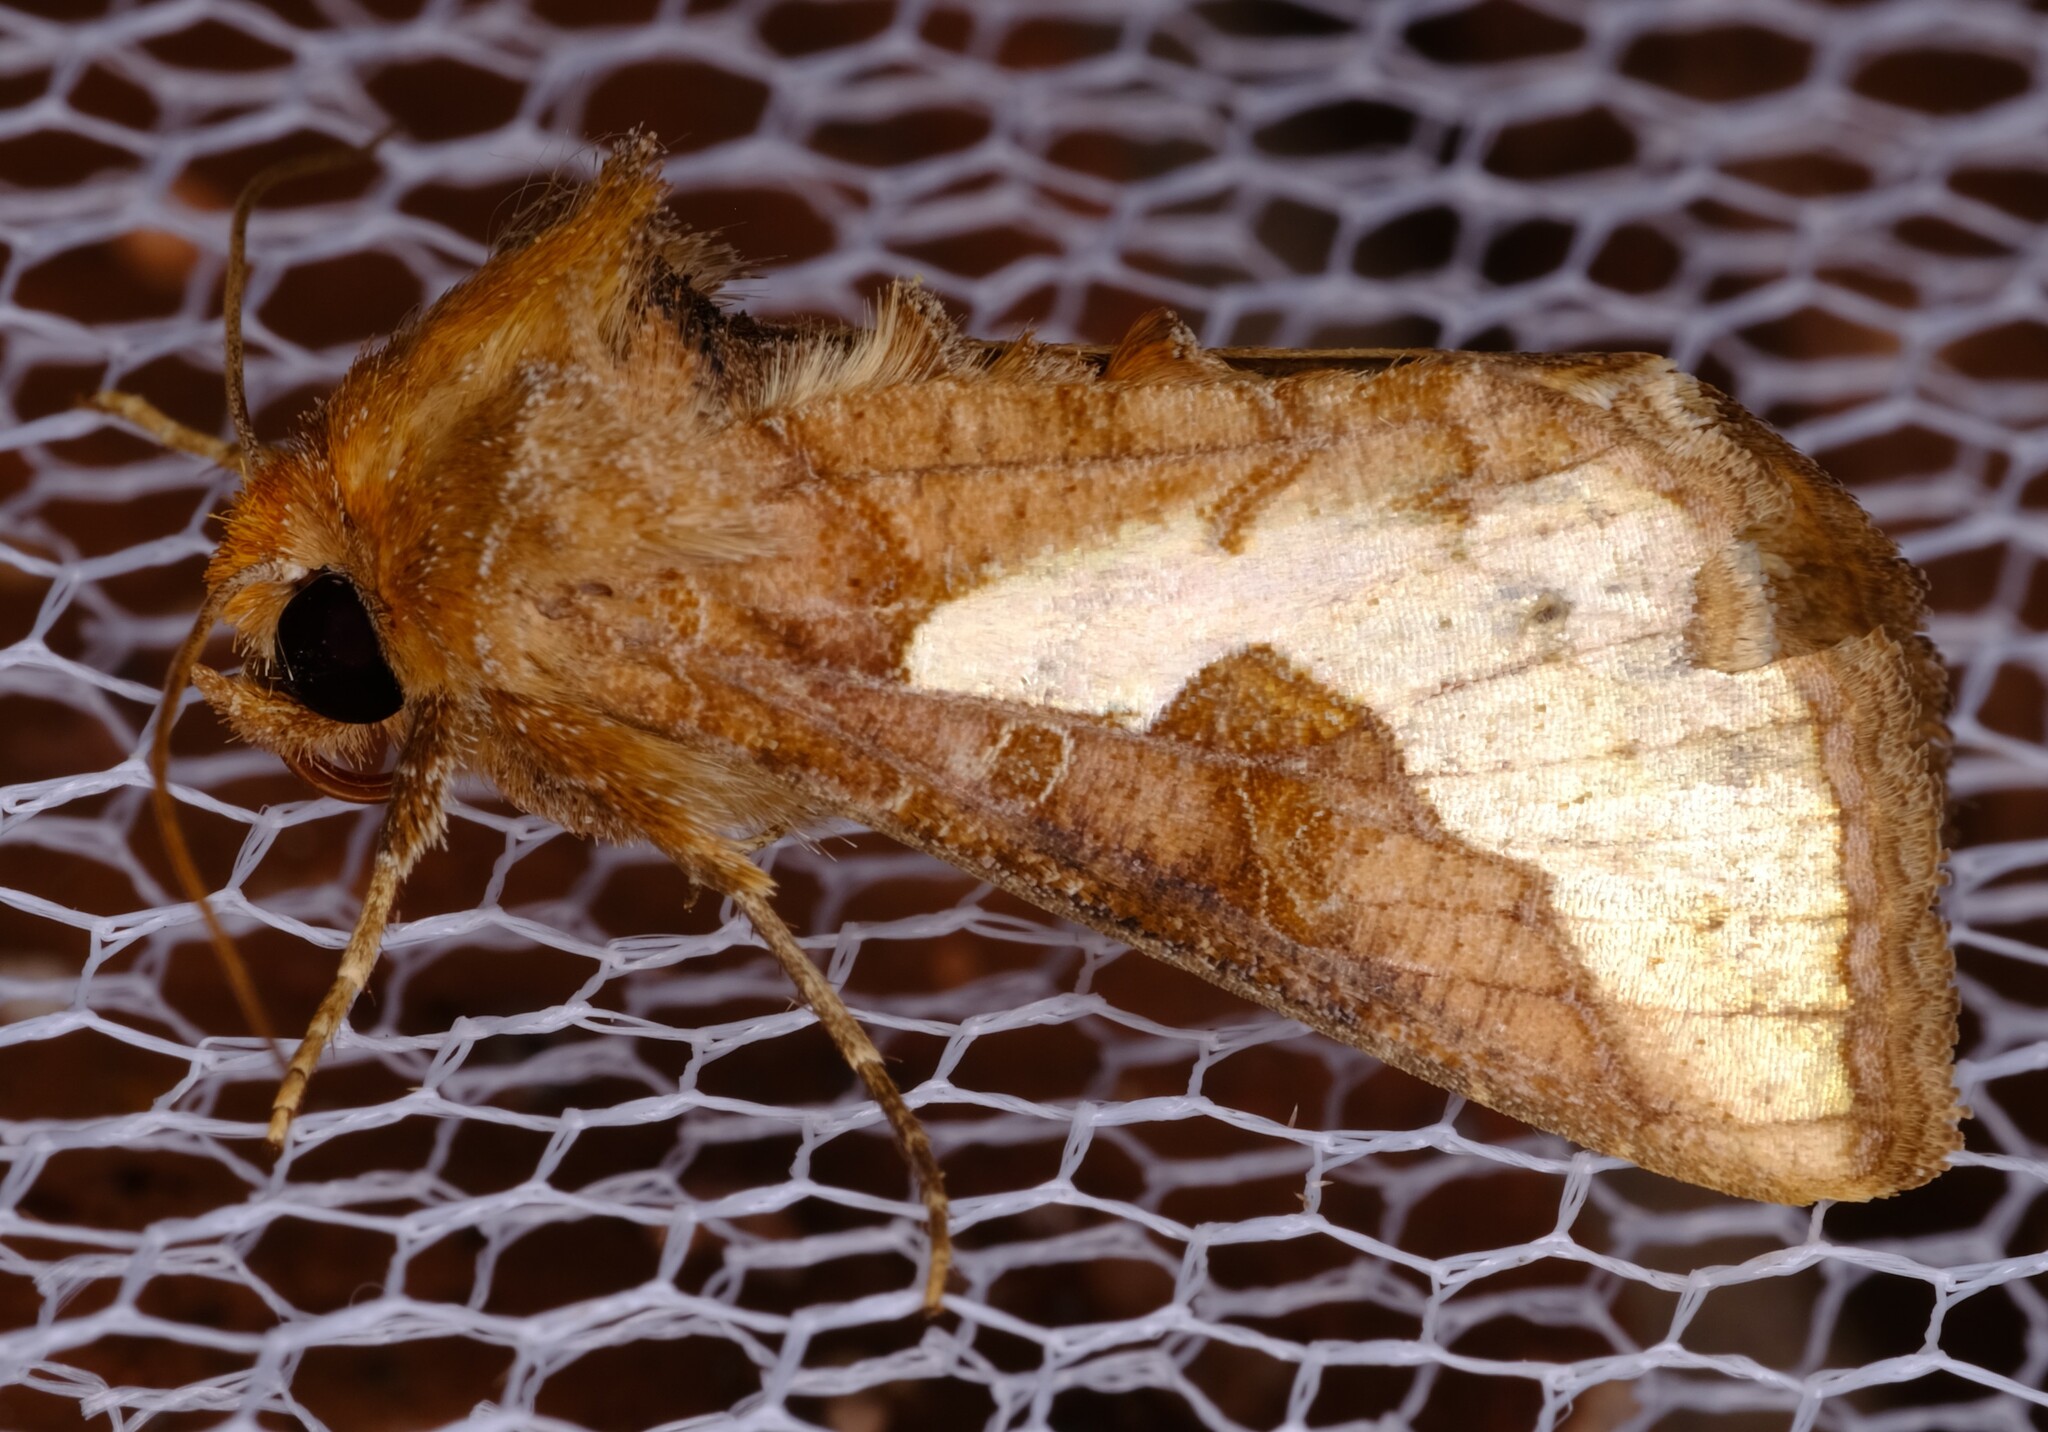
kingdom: Animalia
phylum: Arthropoda
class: Insecta
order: Lepidoptera
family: Noctuidae
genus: Thysanoplusia
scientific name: Thysanoplusia orichalcea
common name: Slender burnished brass, golden plusia
